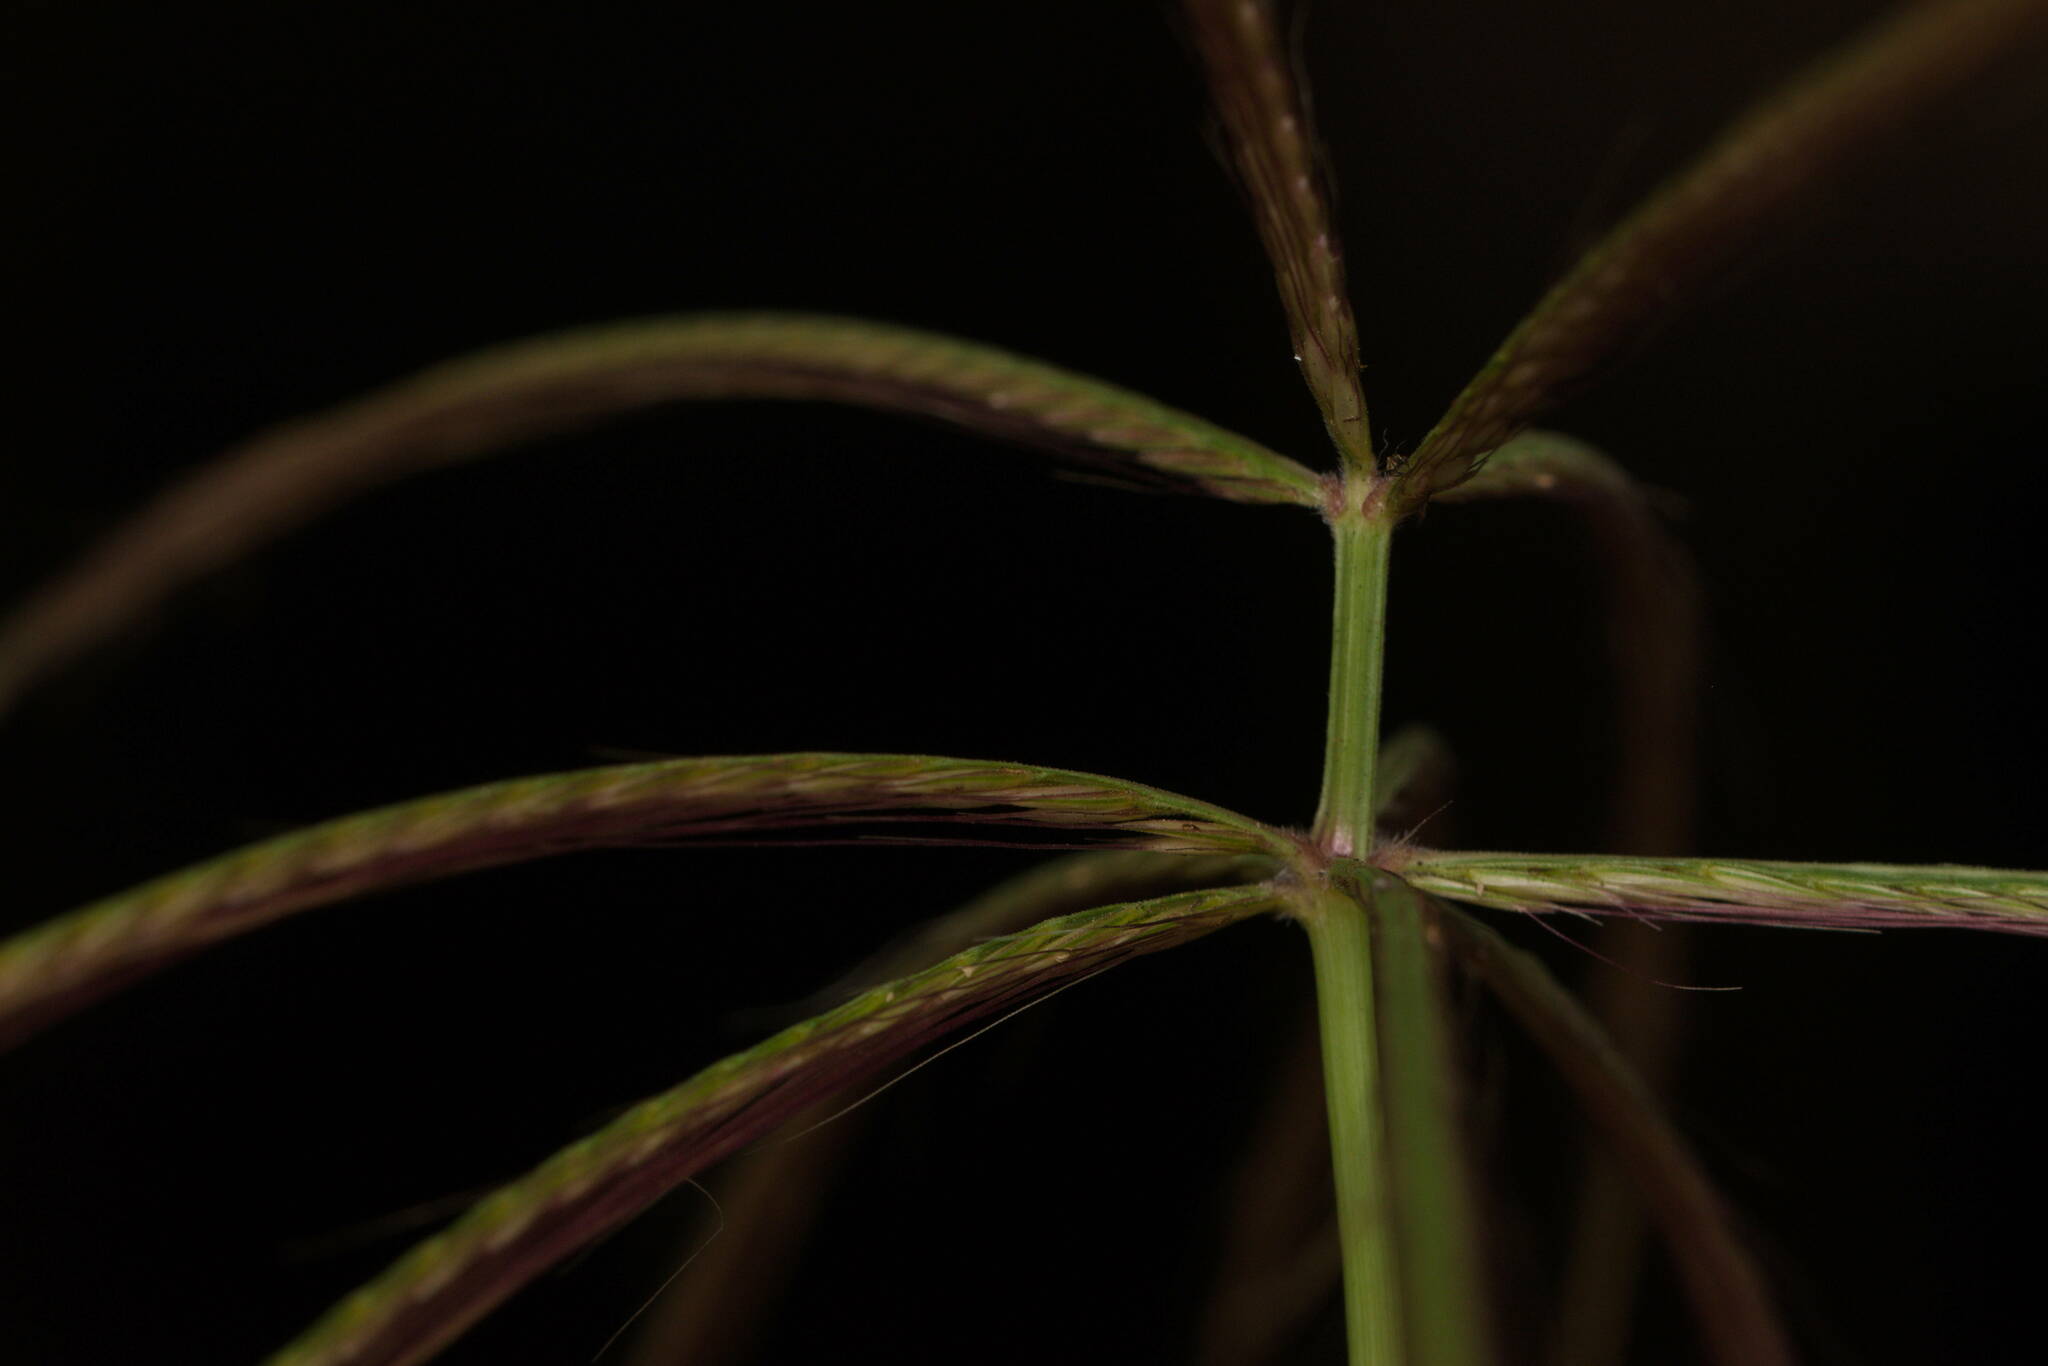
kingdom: Plantae
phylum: Tracheophyta
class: Liliopsida
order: Poales
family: Poaceae
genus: Chloris
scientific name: Chloris pycnothrix
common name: Spiderweb chloris
